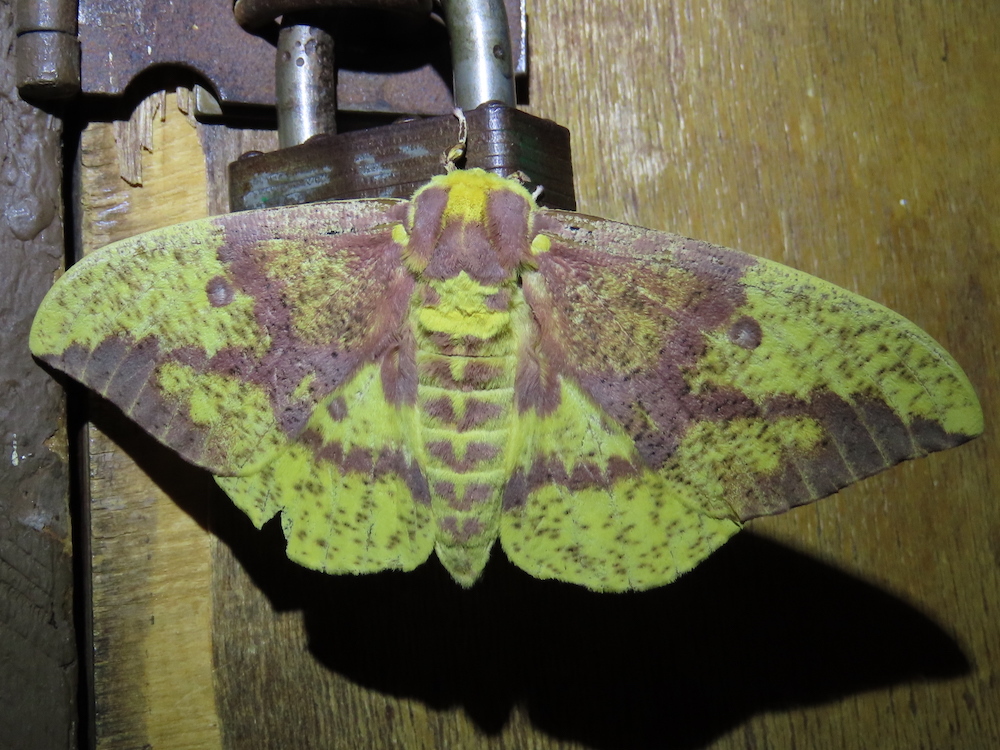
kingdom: Animalia
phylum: Arthropoda
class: Insecta
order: Lepidoptera
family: Saturniidae
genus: Eacles
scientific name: Eacles imperialis
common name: Imperial moth
